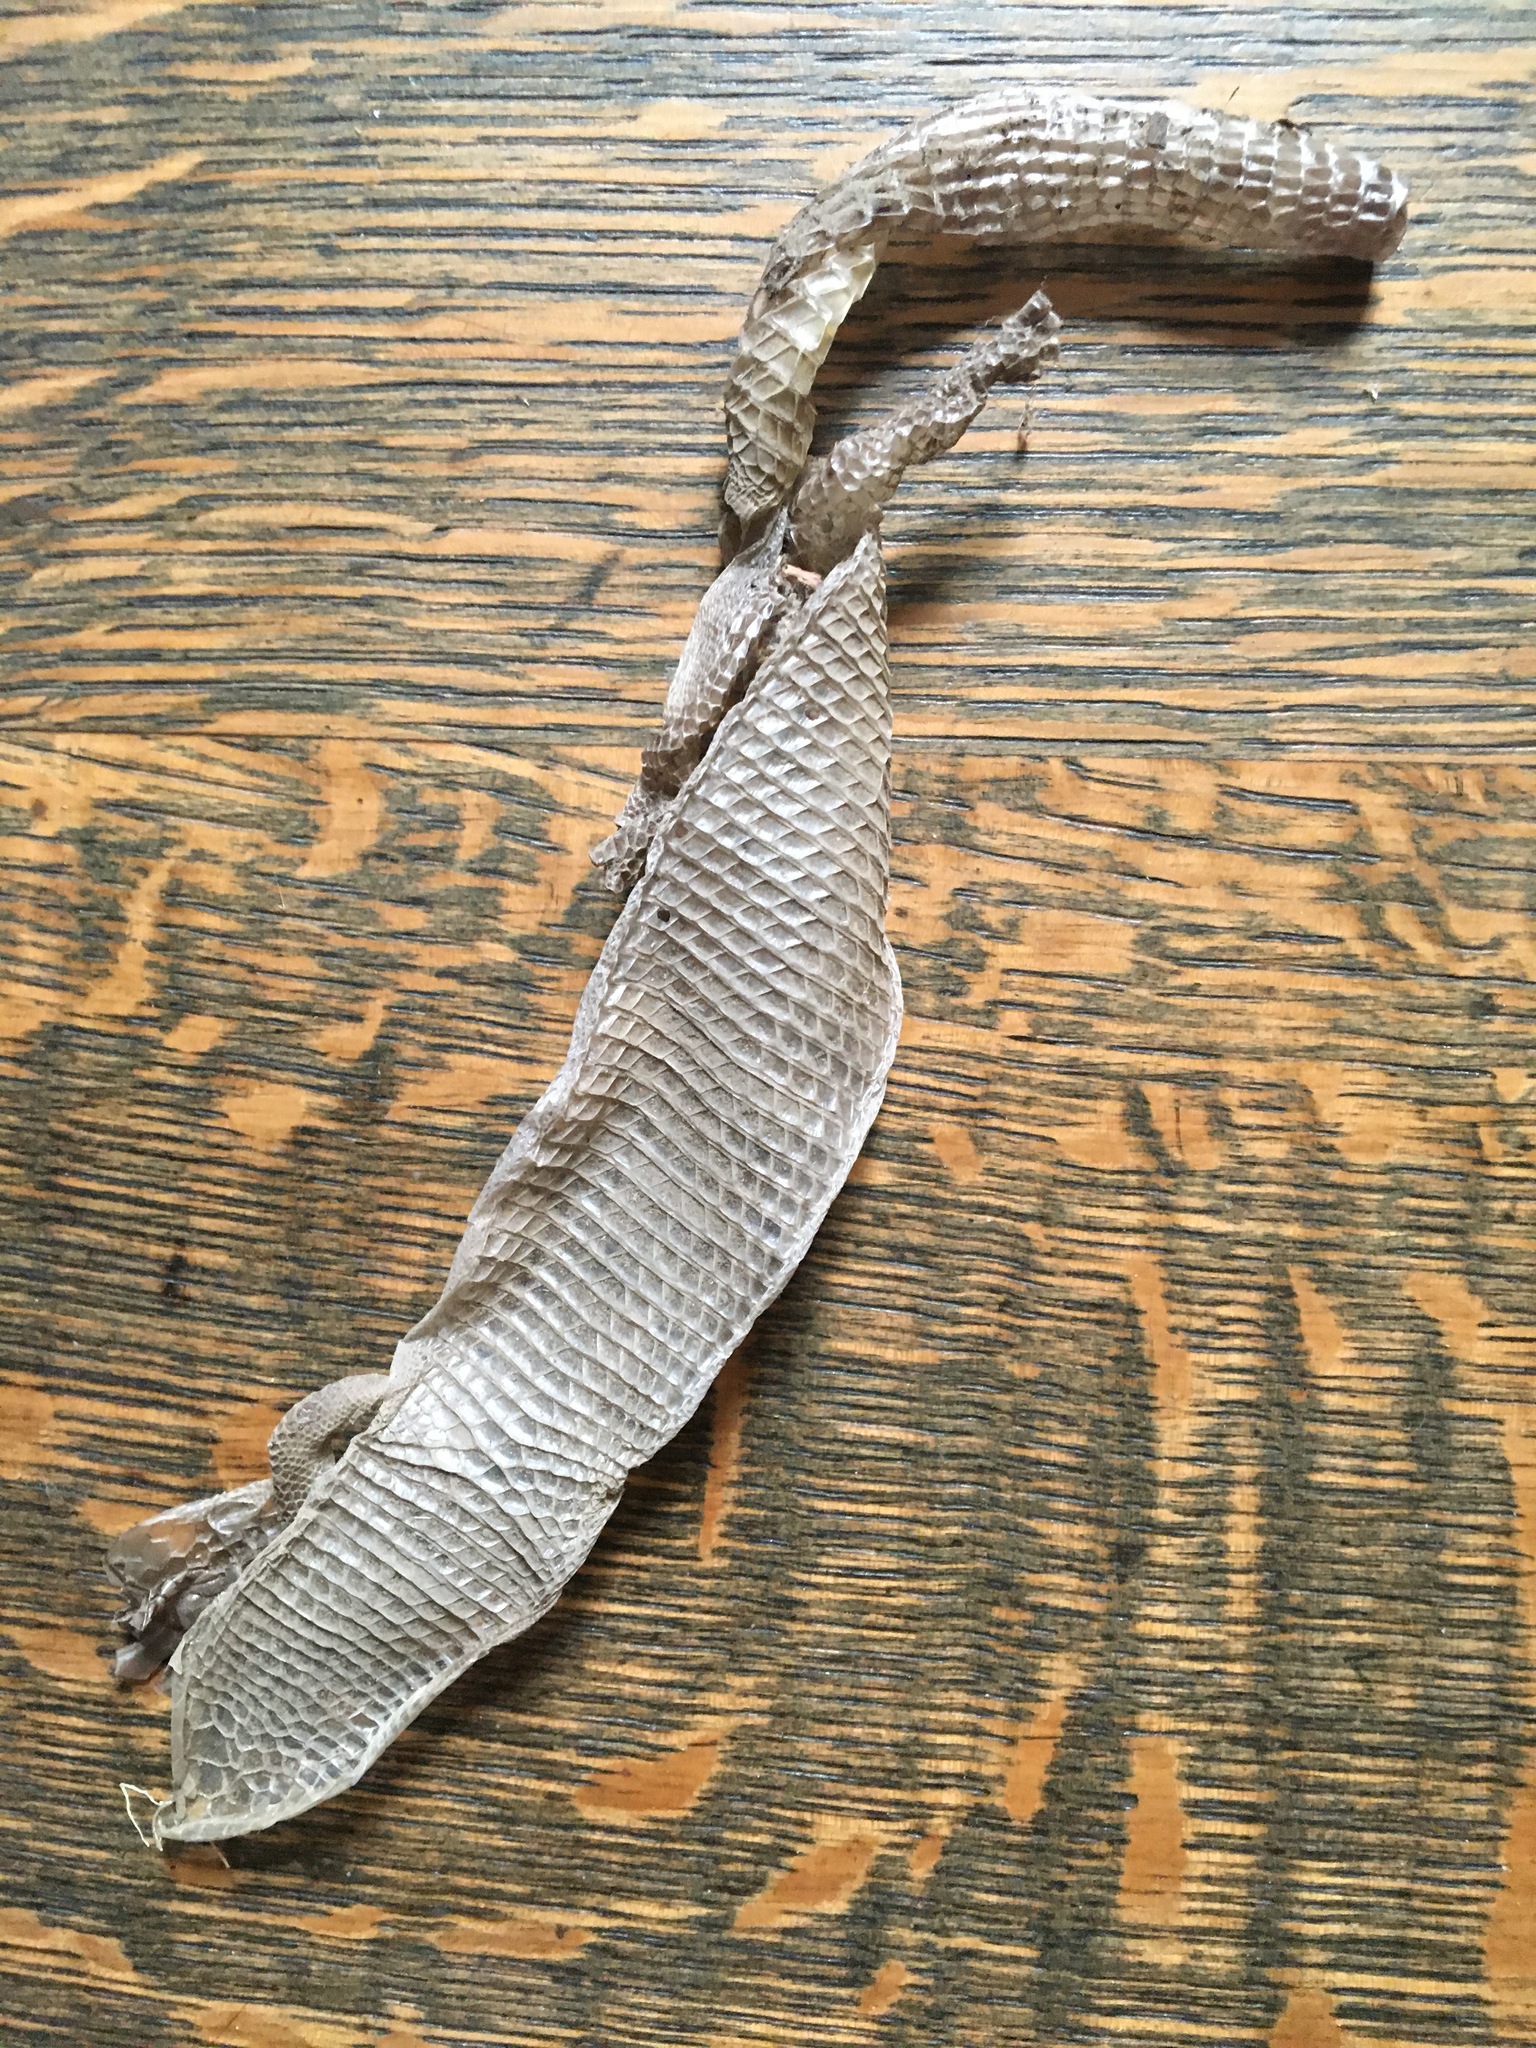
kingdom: Animalia
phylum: Chordata
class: Squamata
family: Anguidae
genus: Elgaria
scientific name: Elgaria multicarinata
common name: Southern alligator lizard
